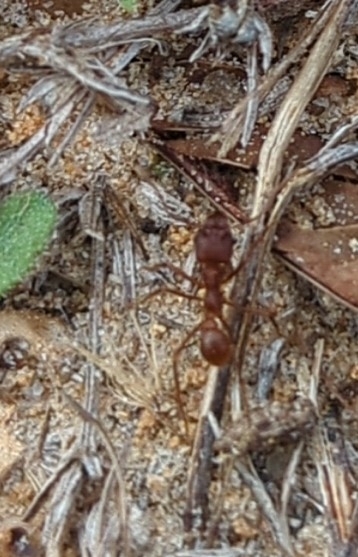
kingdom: Animalia
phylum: Arthropoda
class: Insecta
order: Hymenoptera
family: Formicidae
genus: Atta
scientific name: Atta texana
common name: Texas leafcutting ant
